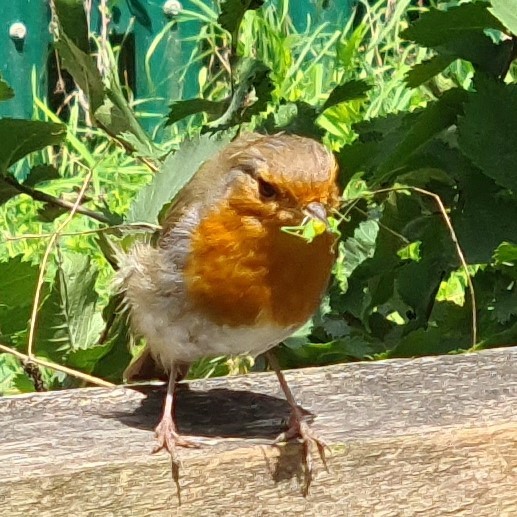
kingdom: Animalia
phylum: Chordata
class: Aves
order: Passeriformes
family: Muscicapidae
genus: Erithacus
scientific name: Erithacus rubecula
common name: European robin
